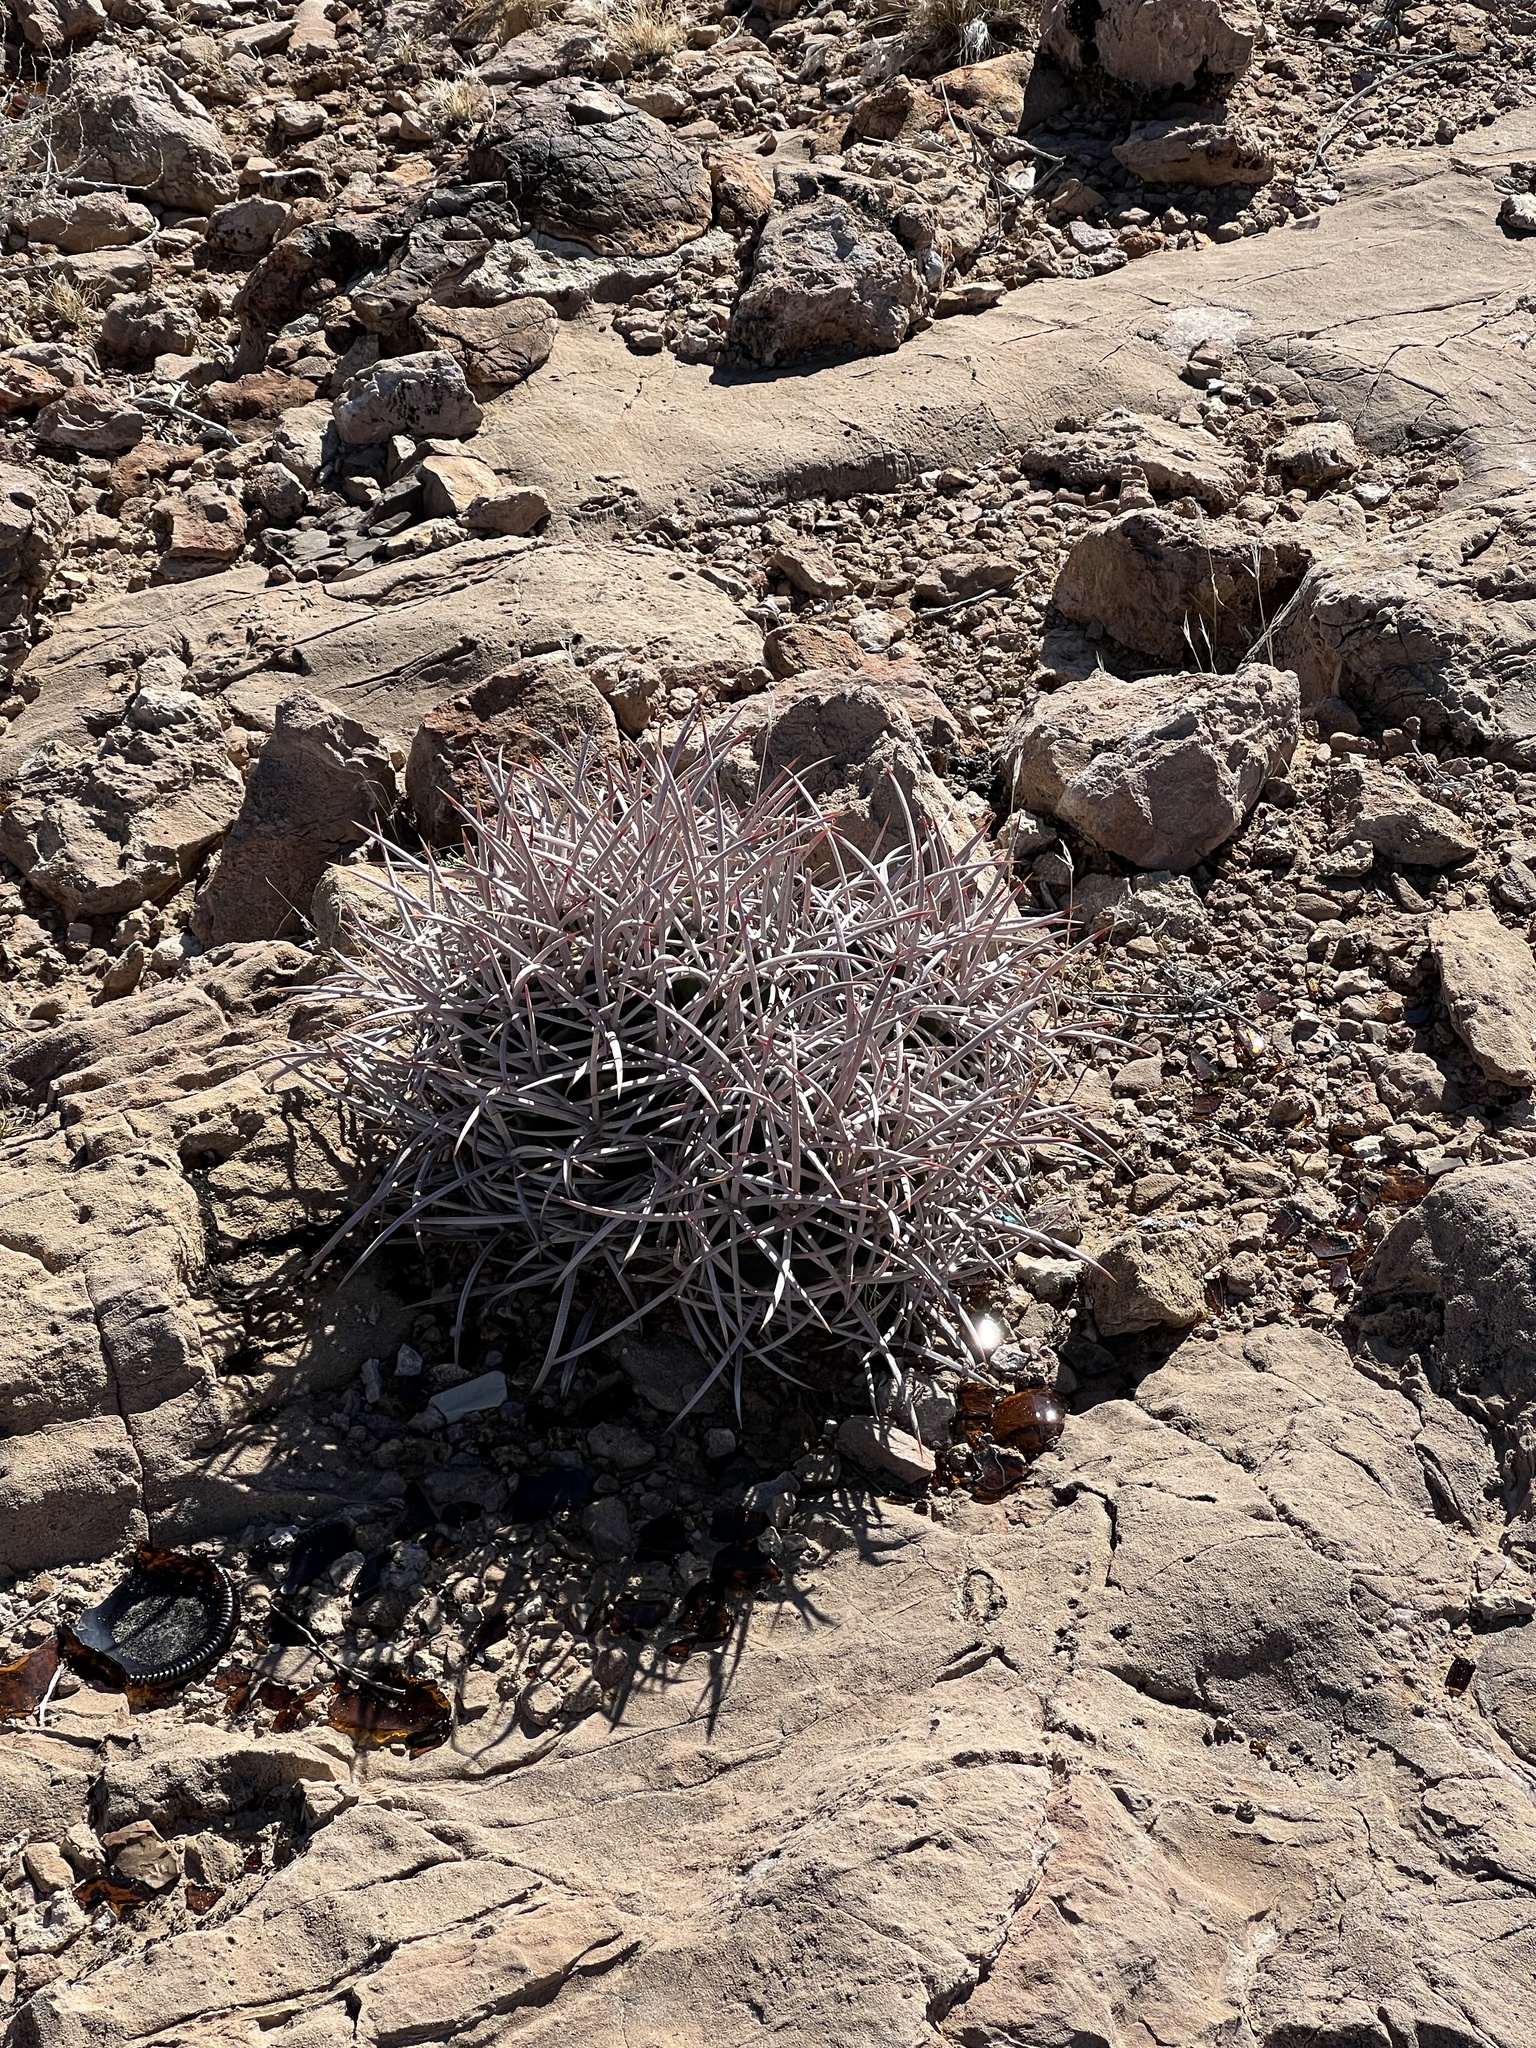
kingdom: Plantae
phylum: Tracheophyta
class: Magnoliopsida
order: Caryophyllales
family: Cactaceae
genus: Echinocactus
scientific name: Echinocactus polycephalus
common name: Cottontop cactus
